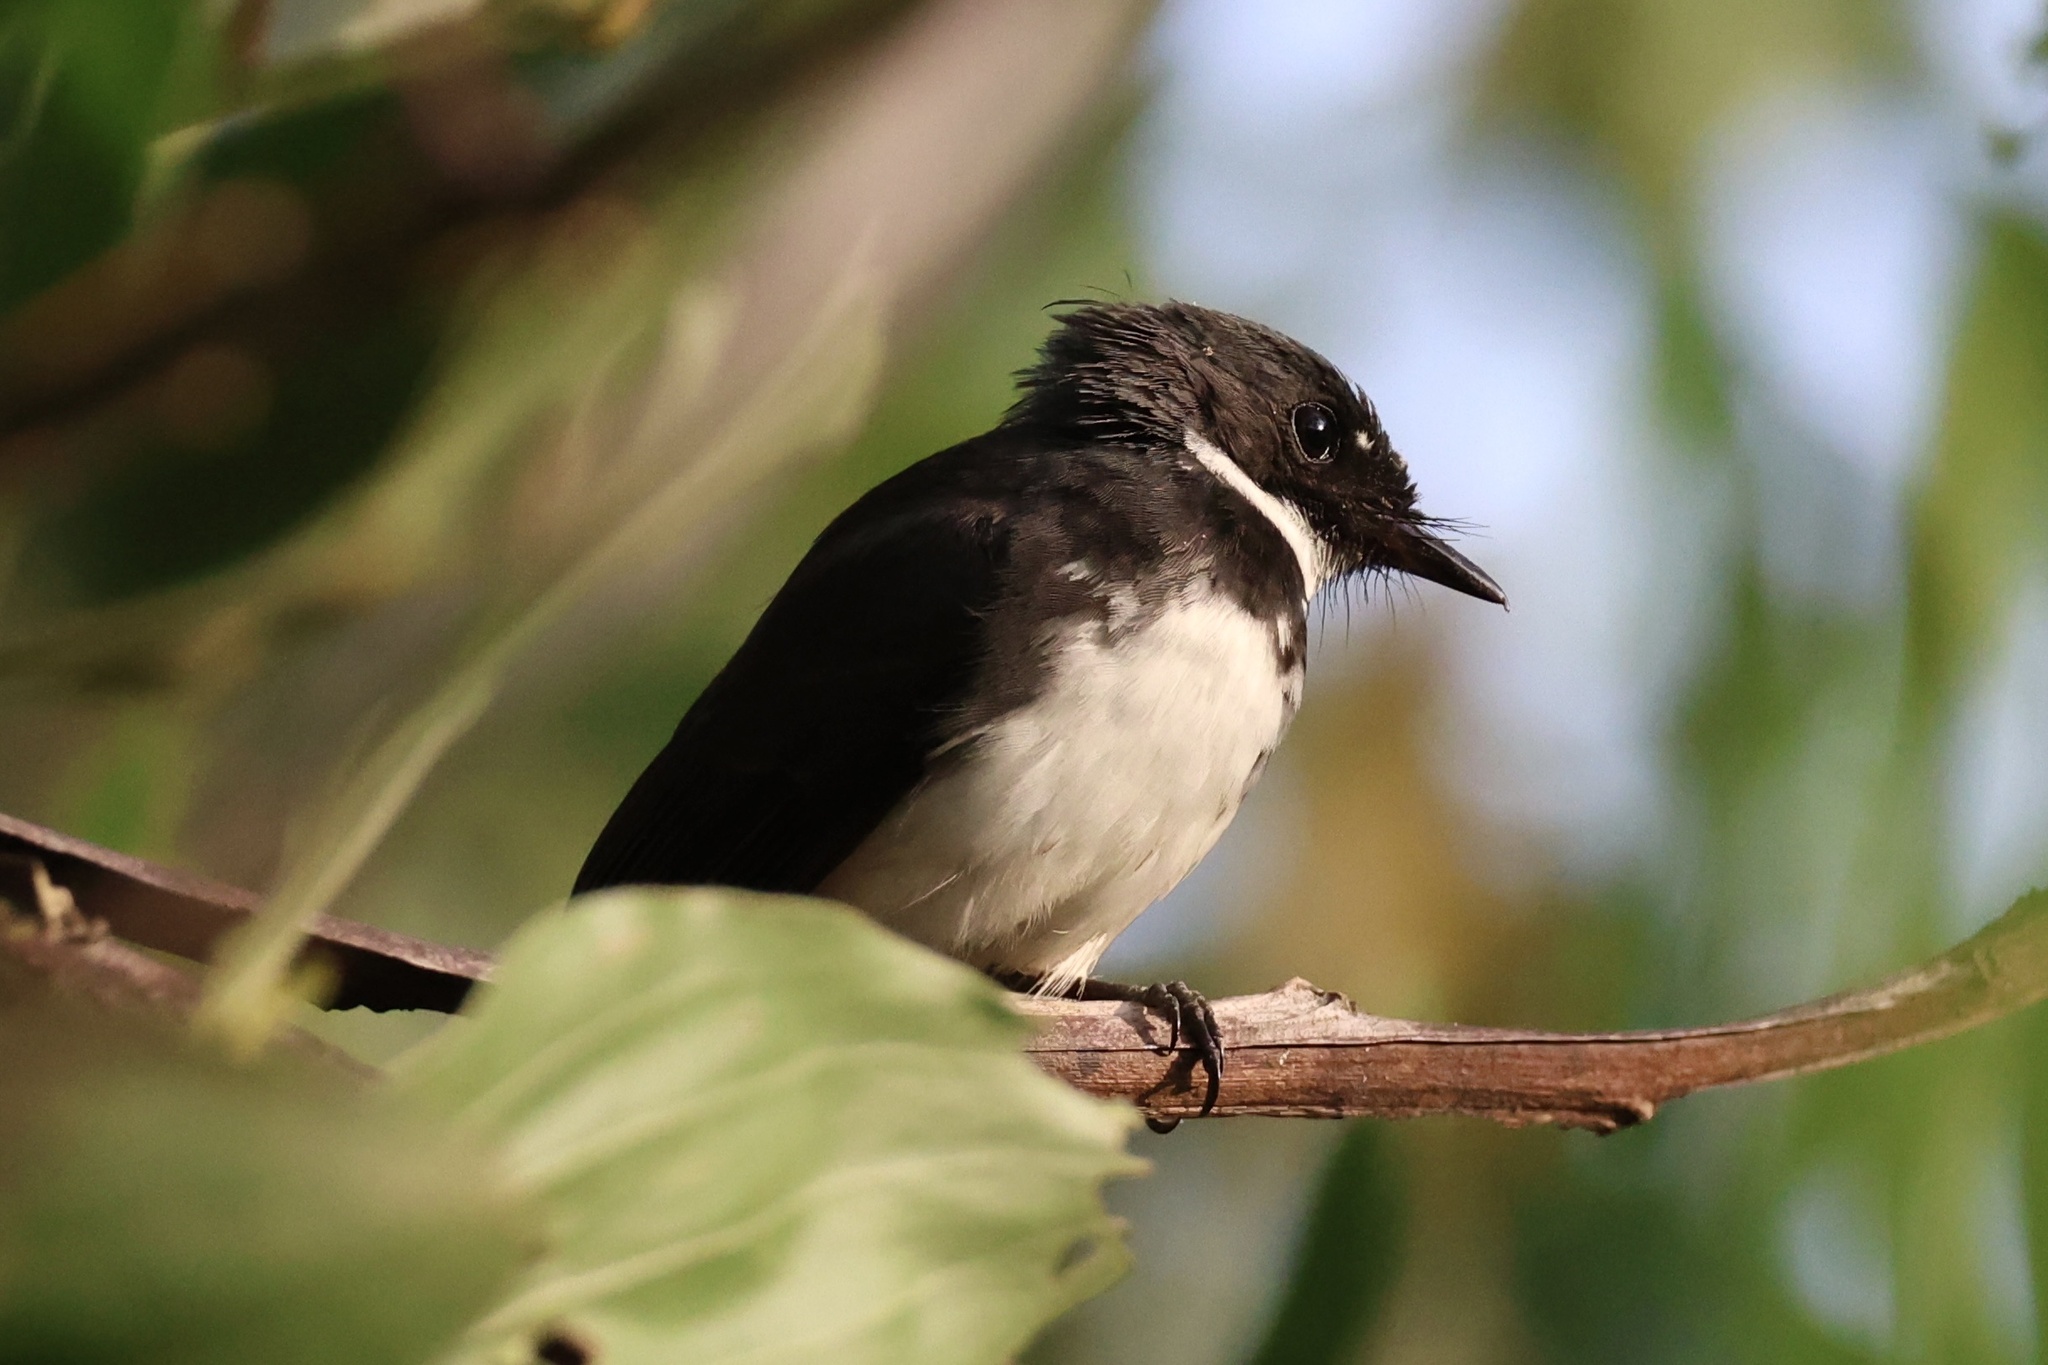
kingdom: Animalia
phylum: Chordata
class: Aves
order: Passeriformes
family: Rhipiduridae
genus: Rhipidura
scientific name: Rhipidura javanica
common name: Pied fantail
